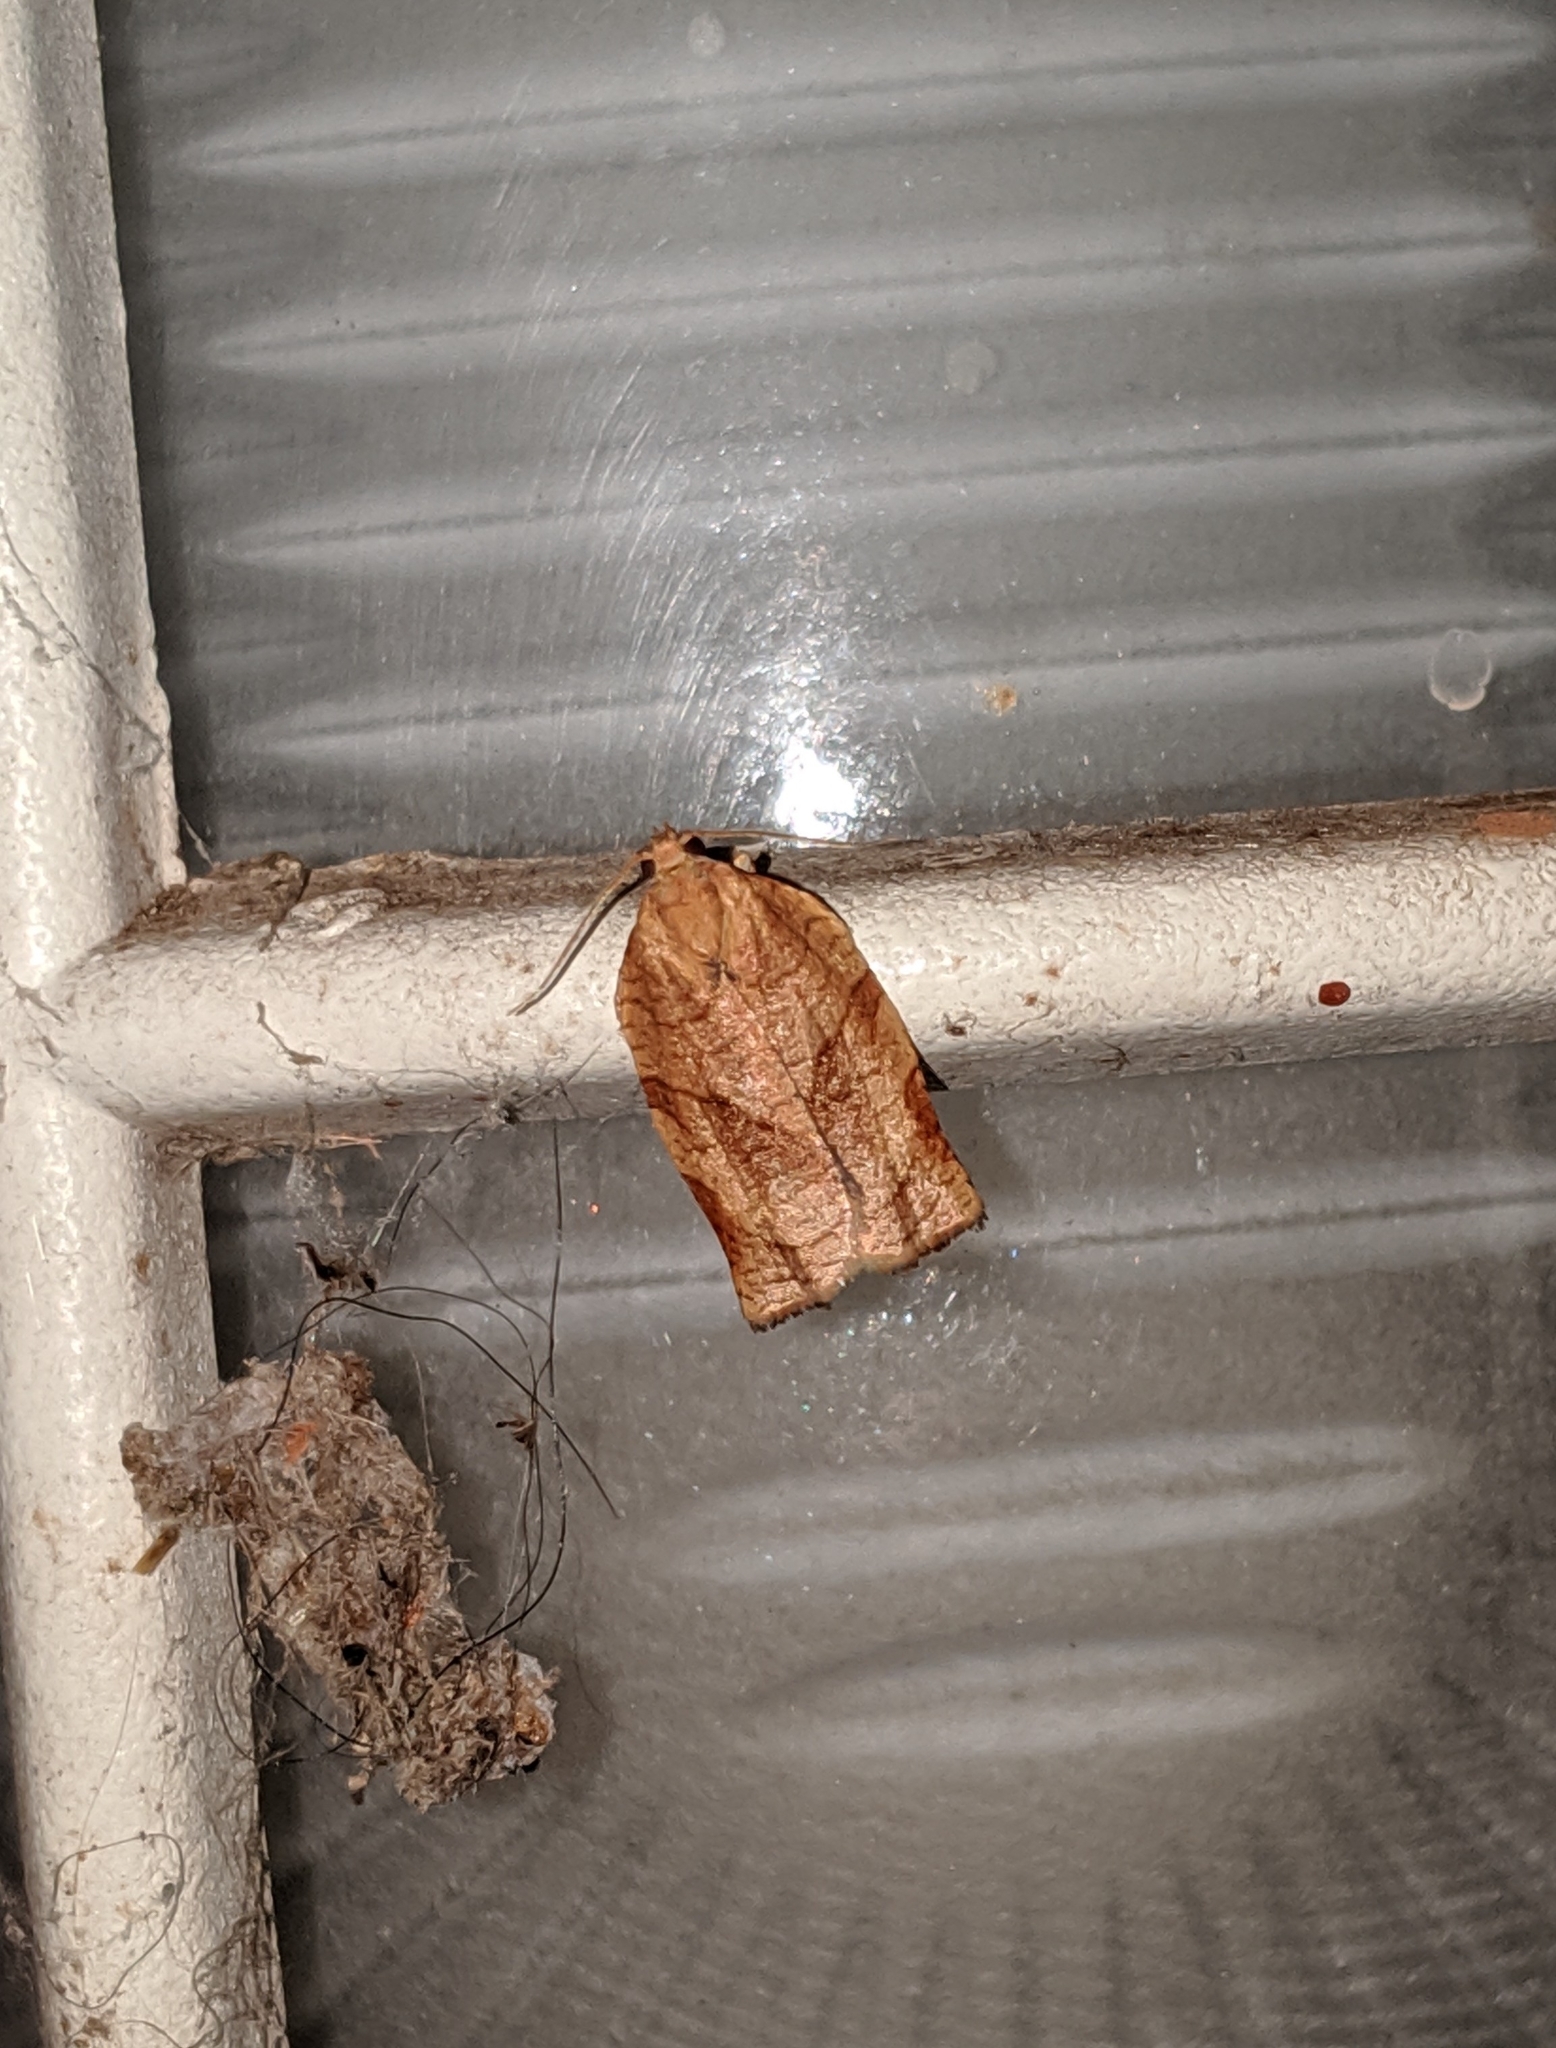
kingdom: Animalia
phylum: Arthropoda
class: Insecta
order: Lepidoptera
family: Tortricidae
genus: Choristoneura
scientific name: Choristoneura rosaceana
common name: Oblique-banded leafroller moth
